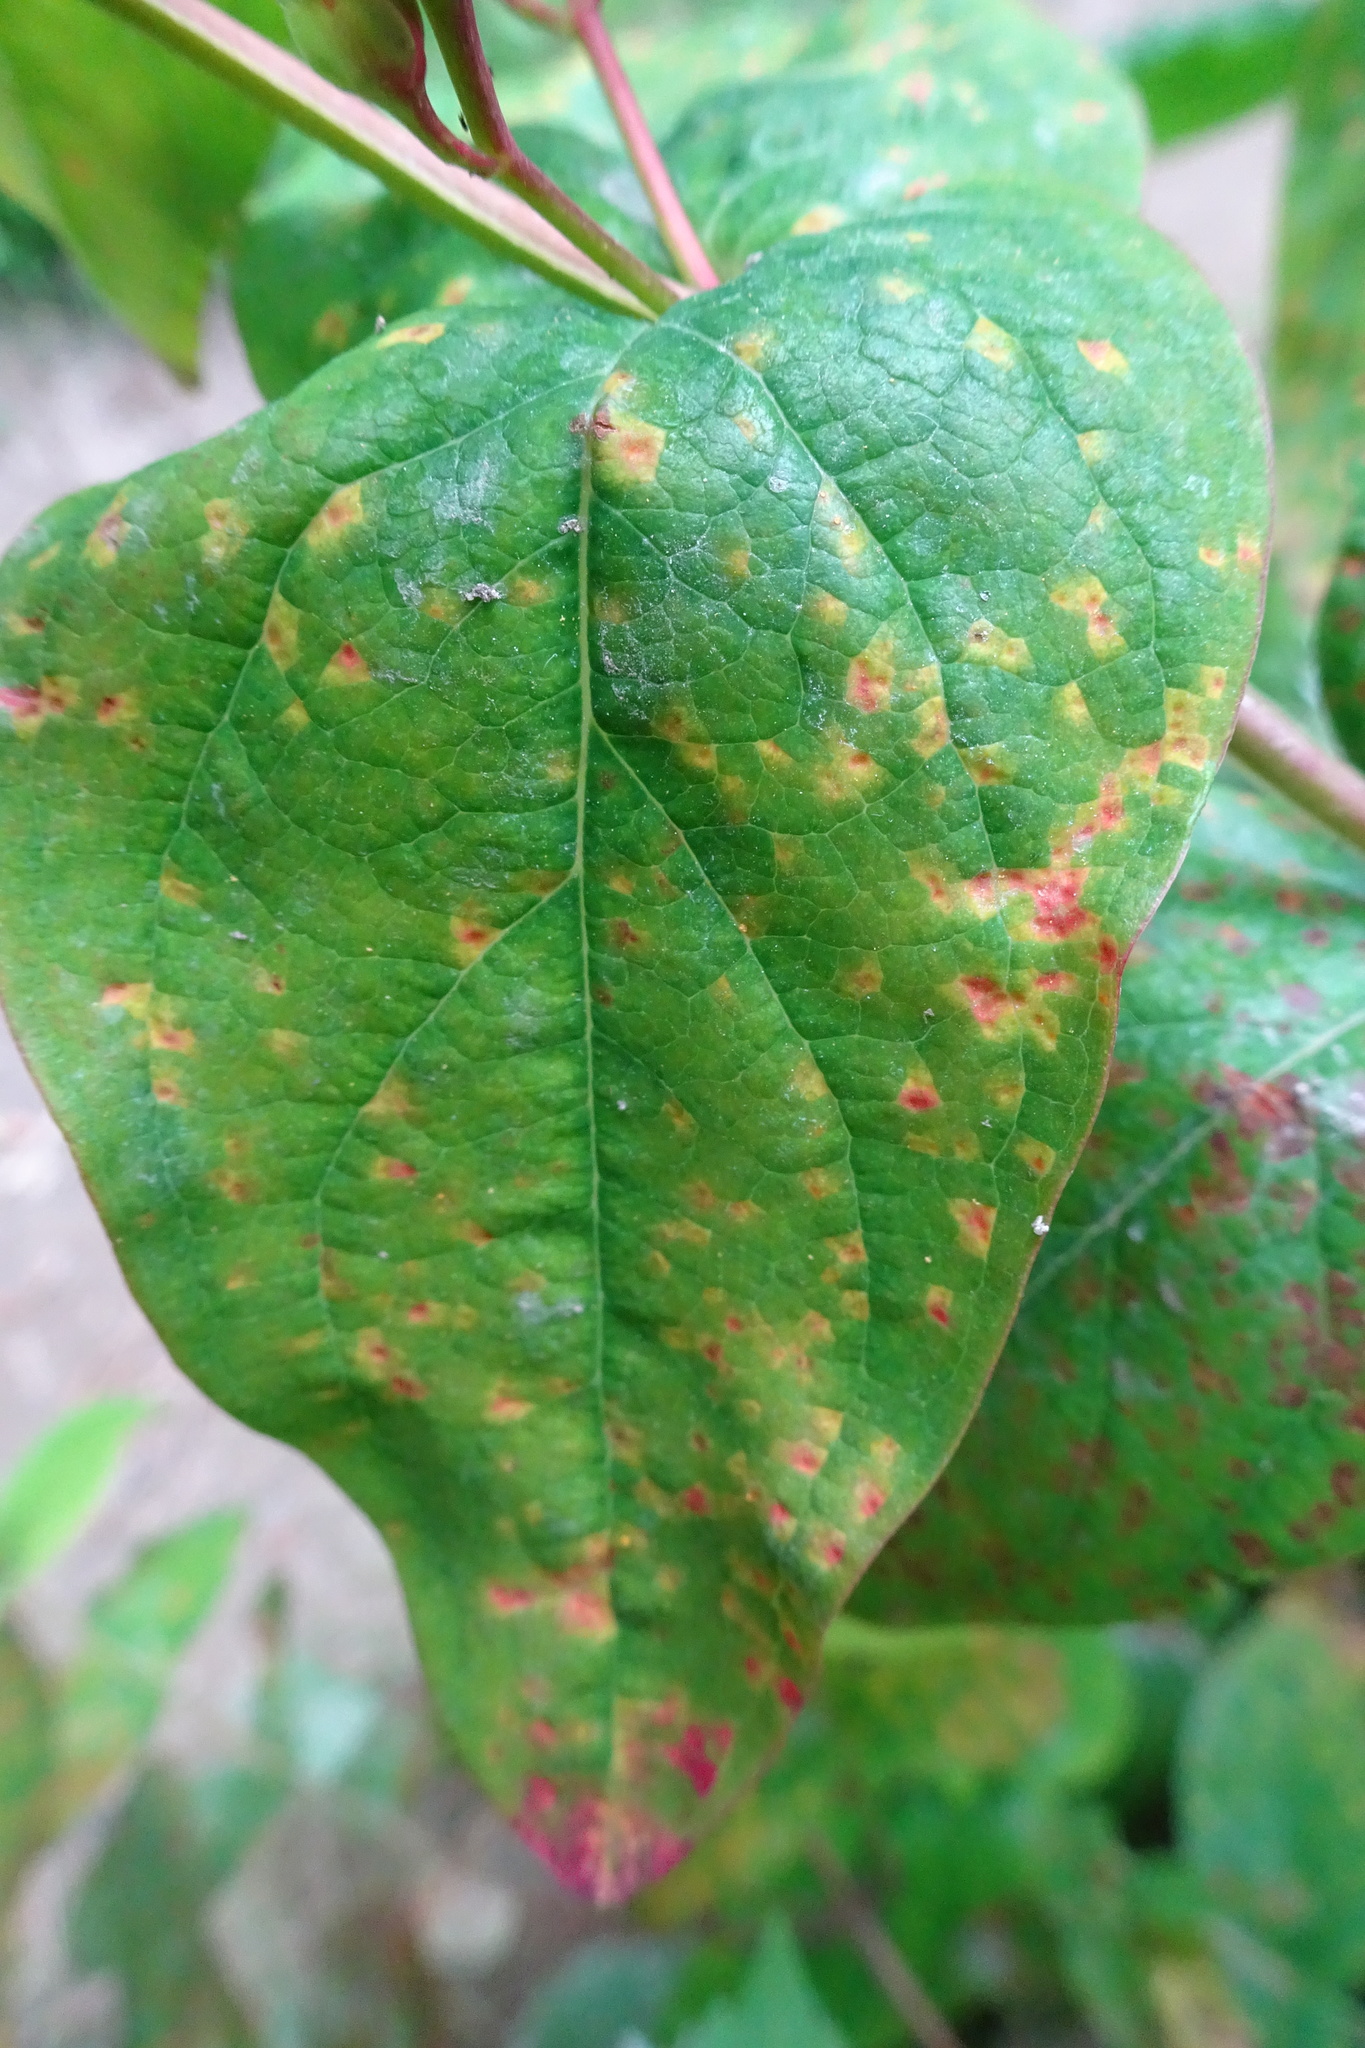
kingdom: Plantae
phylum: Tracheophyta
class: Magnoliopsida
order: Malpighiales
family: Hypericaceae
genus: Hypericum
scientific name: Hypericum androsaemum
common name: Sweet-amber
